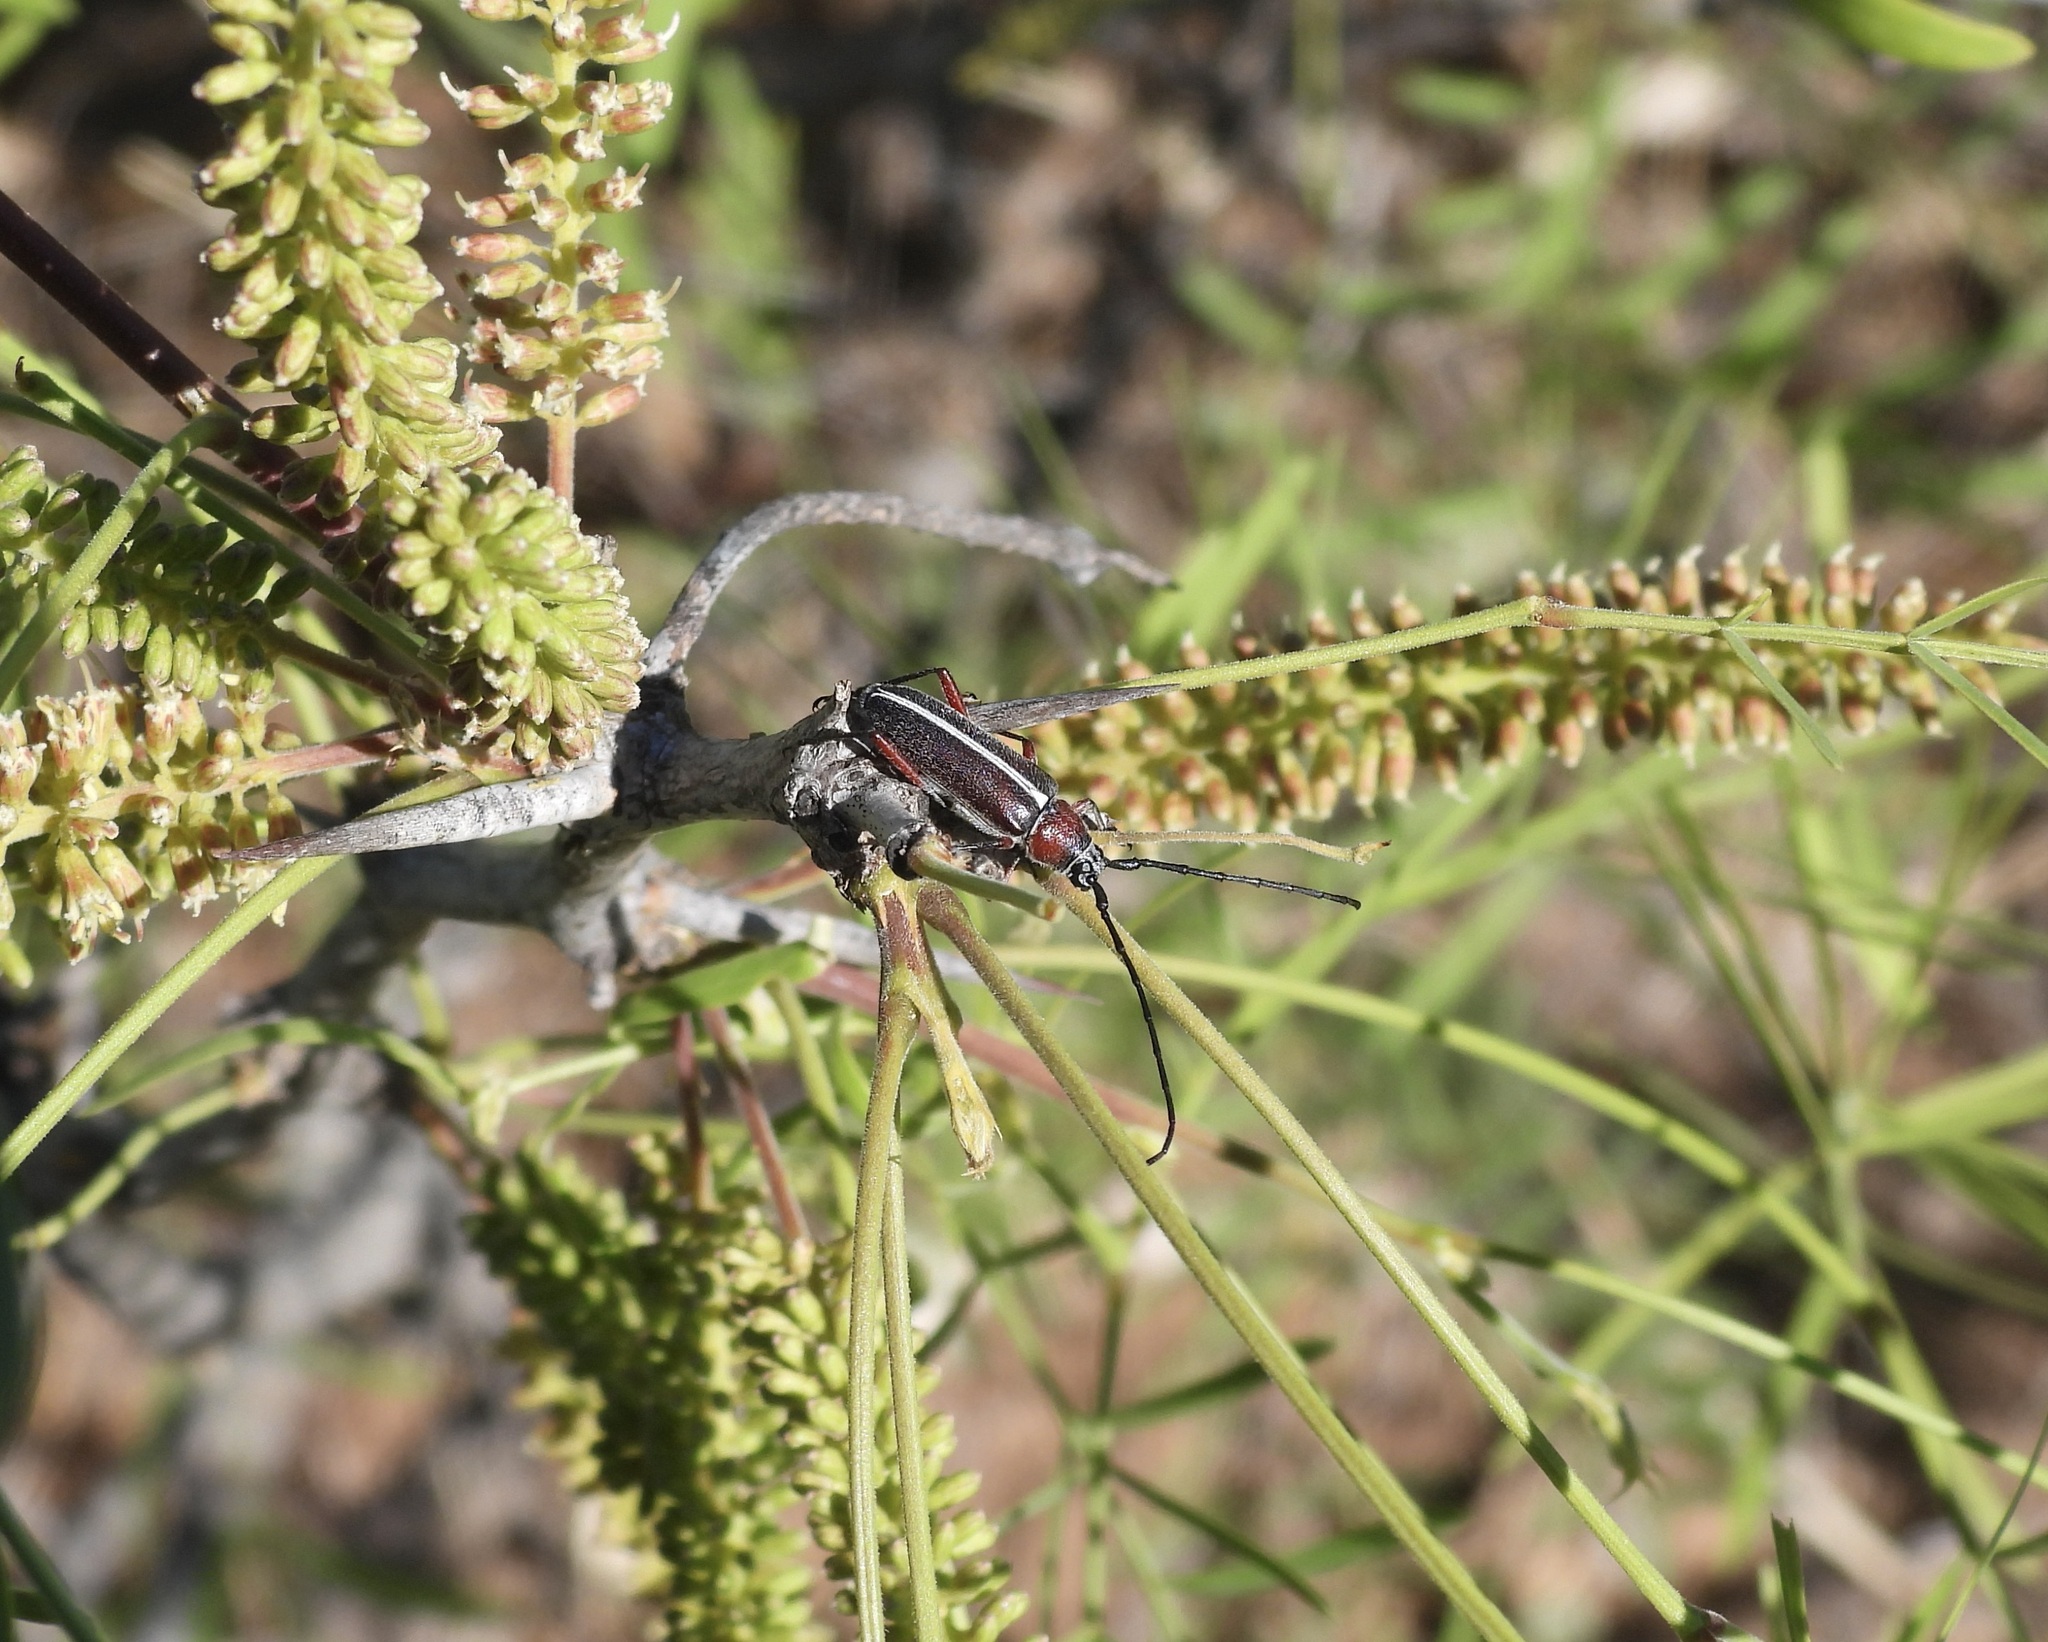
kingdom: Animalia
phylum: Arthropoda
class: Insecta
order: Coleoptera
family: Cerambycidae
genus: Plionoma
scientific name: Plionoma suturalis
